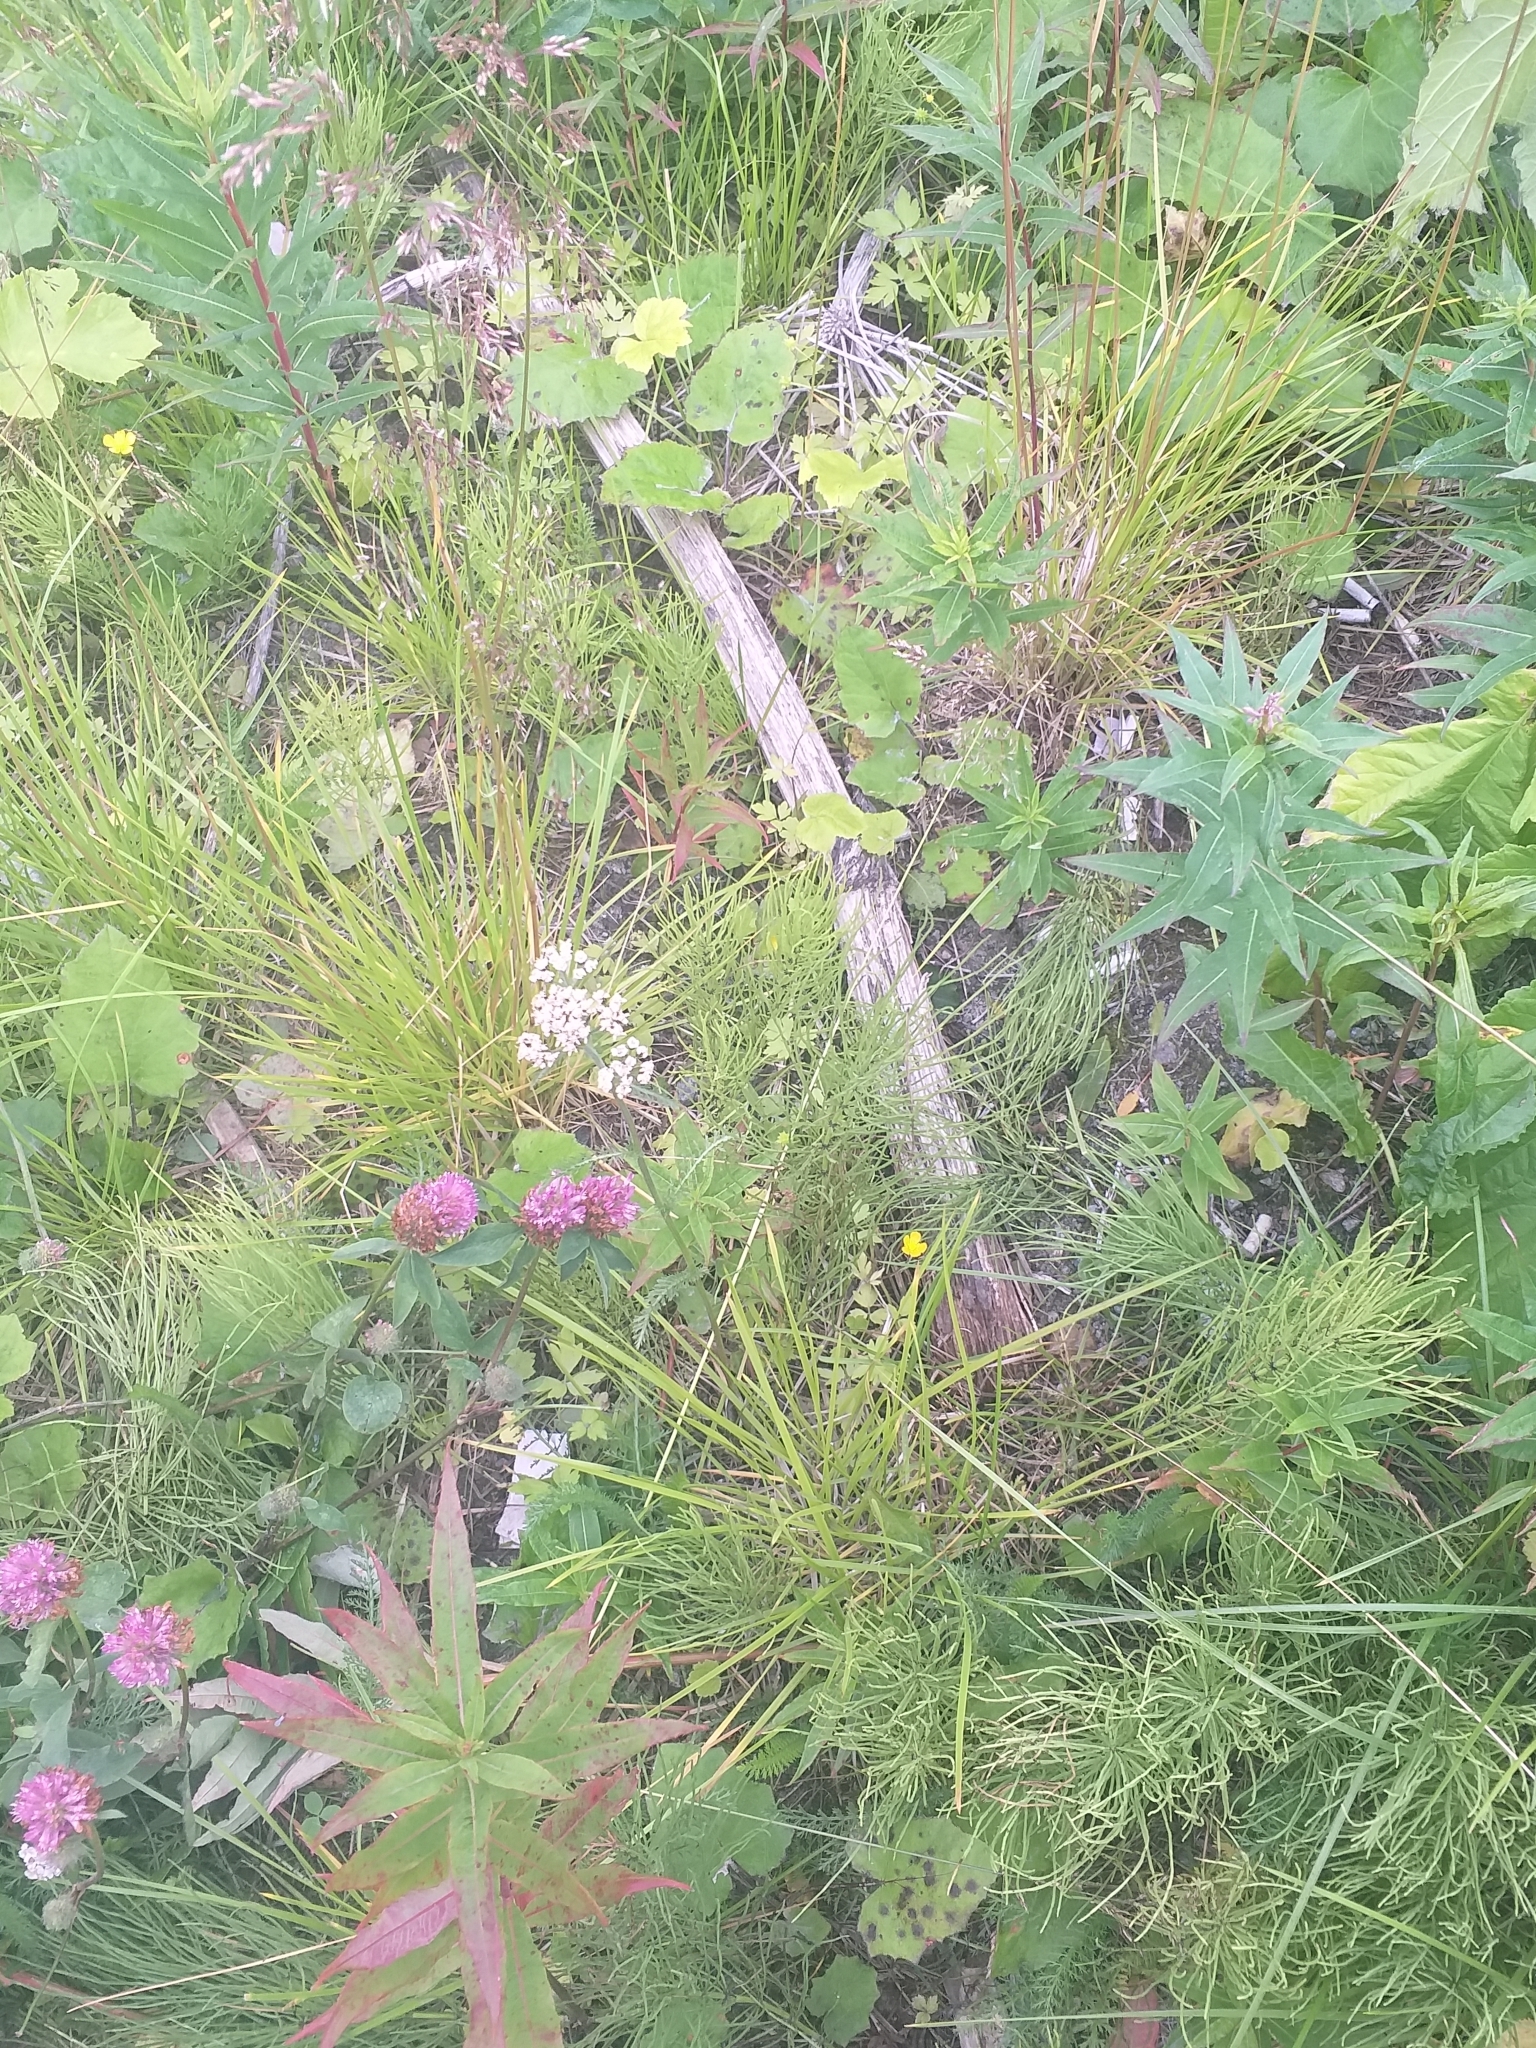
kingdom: Plantae
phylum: Tracheophyta
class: Magnoliopsida
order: Asterales
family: Asteraceae
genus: Achillea
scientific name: Achillea millefolium
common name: Yarrow
